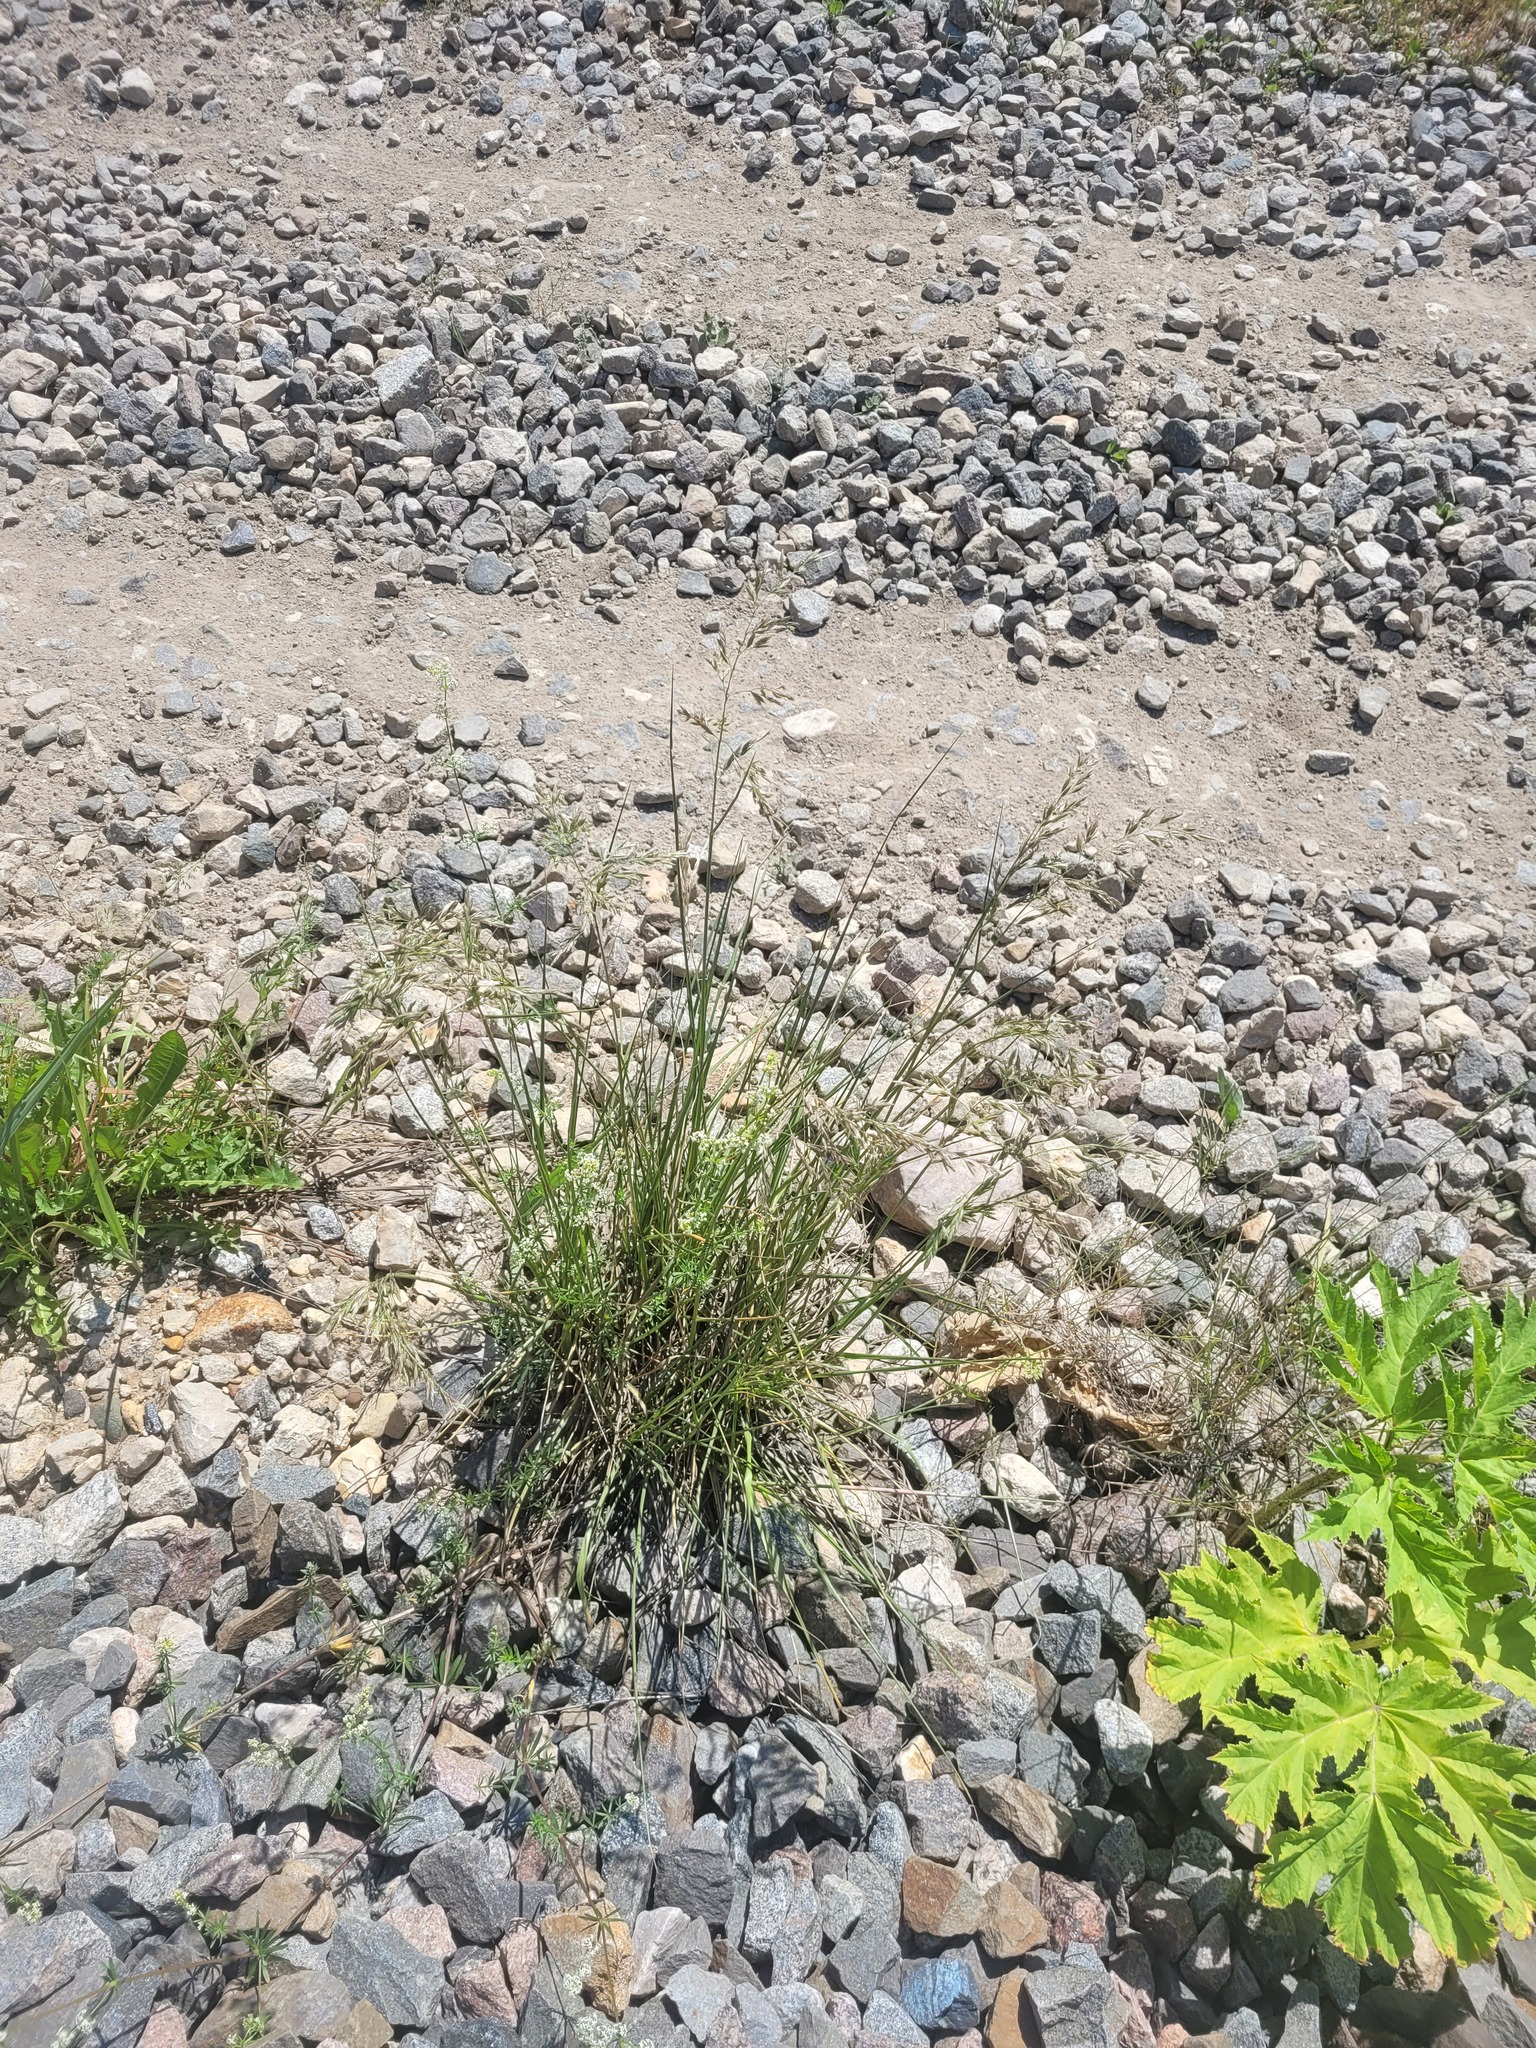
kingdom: Plantae
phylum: Tracheophyta
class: Liliopsida
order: Poales
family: Poaceae
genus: Lolium
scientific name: Lolium arundinaceum
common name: Reed fescue
